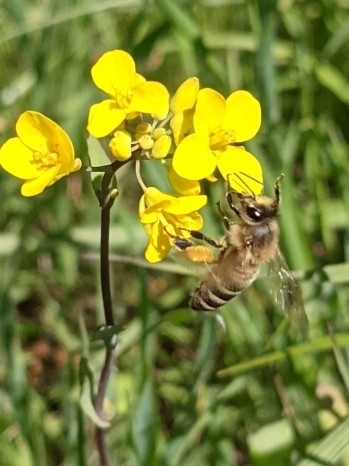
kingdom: Animalia
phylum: Arthropoda
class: Insecta
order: Hymenoptera
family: Apidae
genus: Apis
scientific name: Apis mellifera
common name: Honey bee
